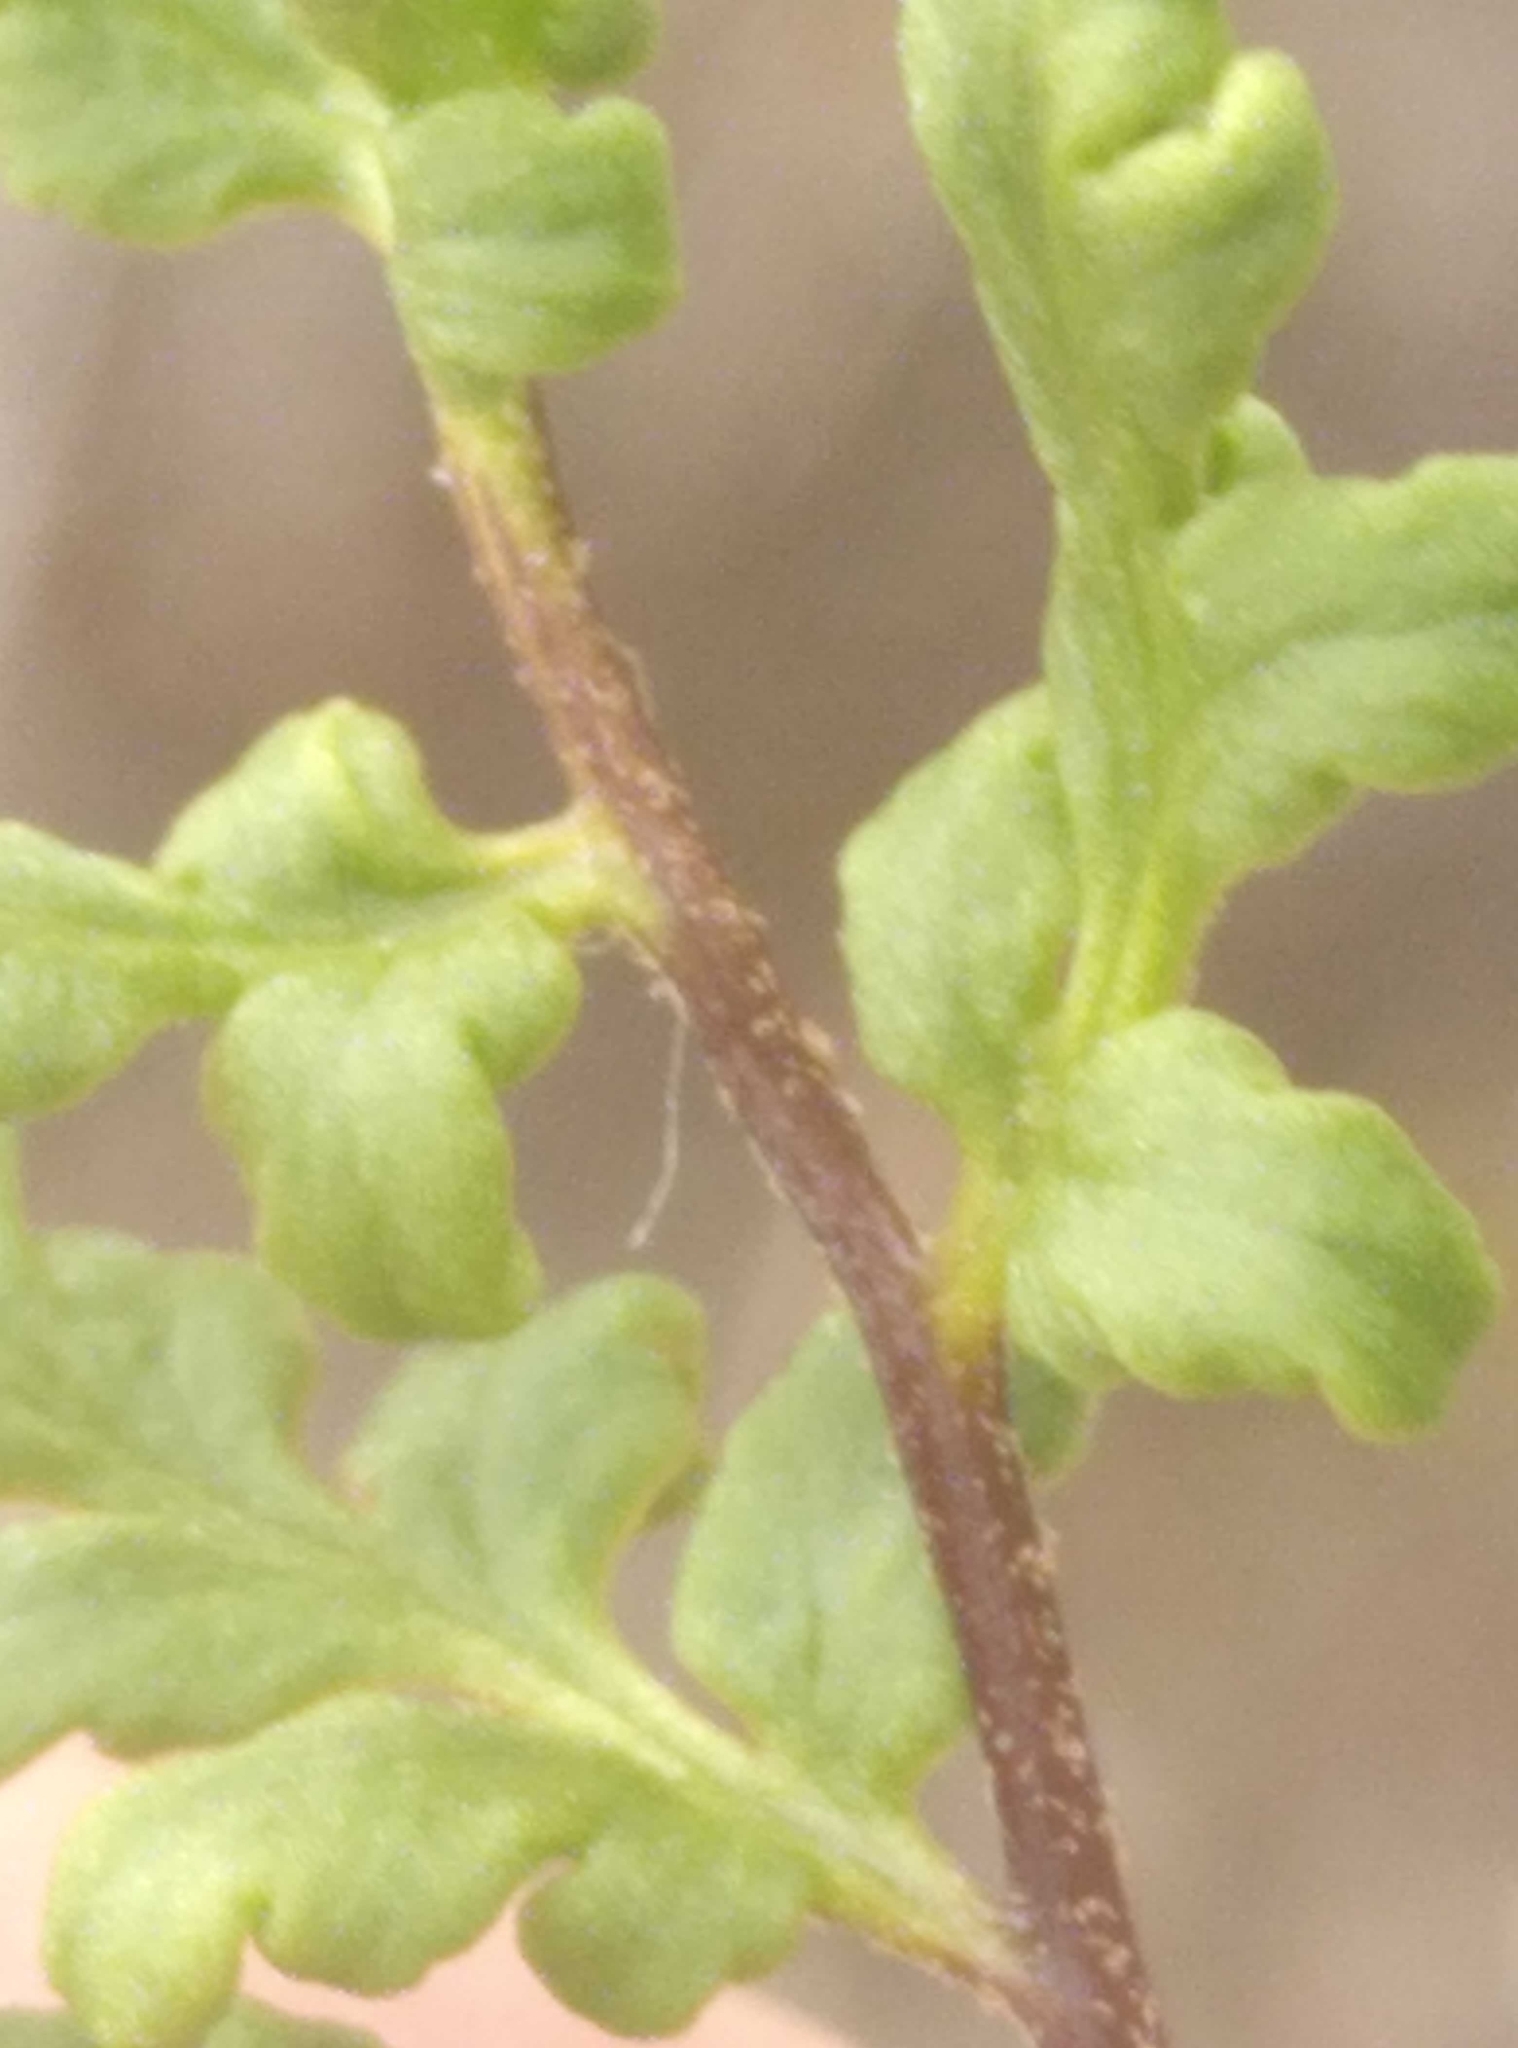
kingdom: Plantae
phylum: Tracheophyta
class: Polypodiopsida
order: Polypodiales
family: Pteridaceae
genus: Cheilanthes
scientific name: Cheilanthes sieberi
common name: Mulga fern
